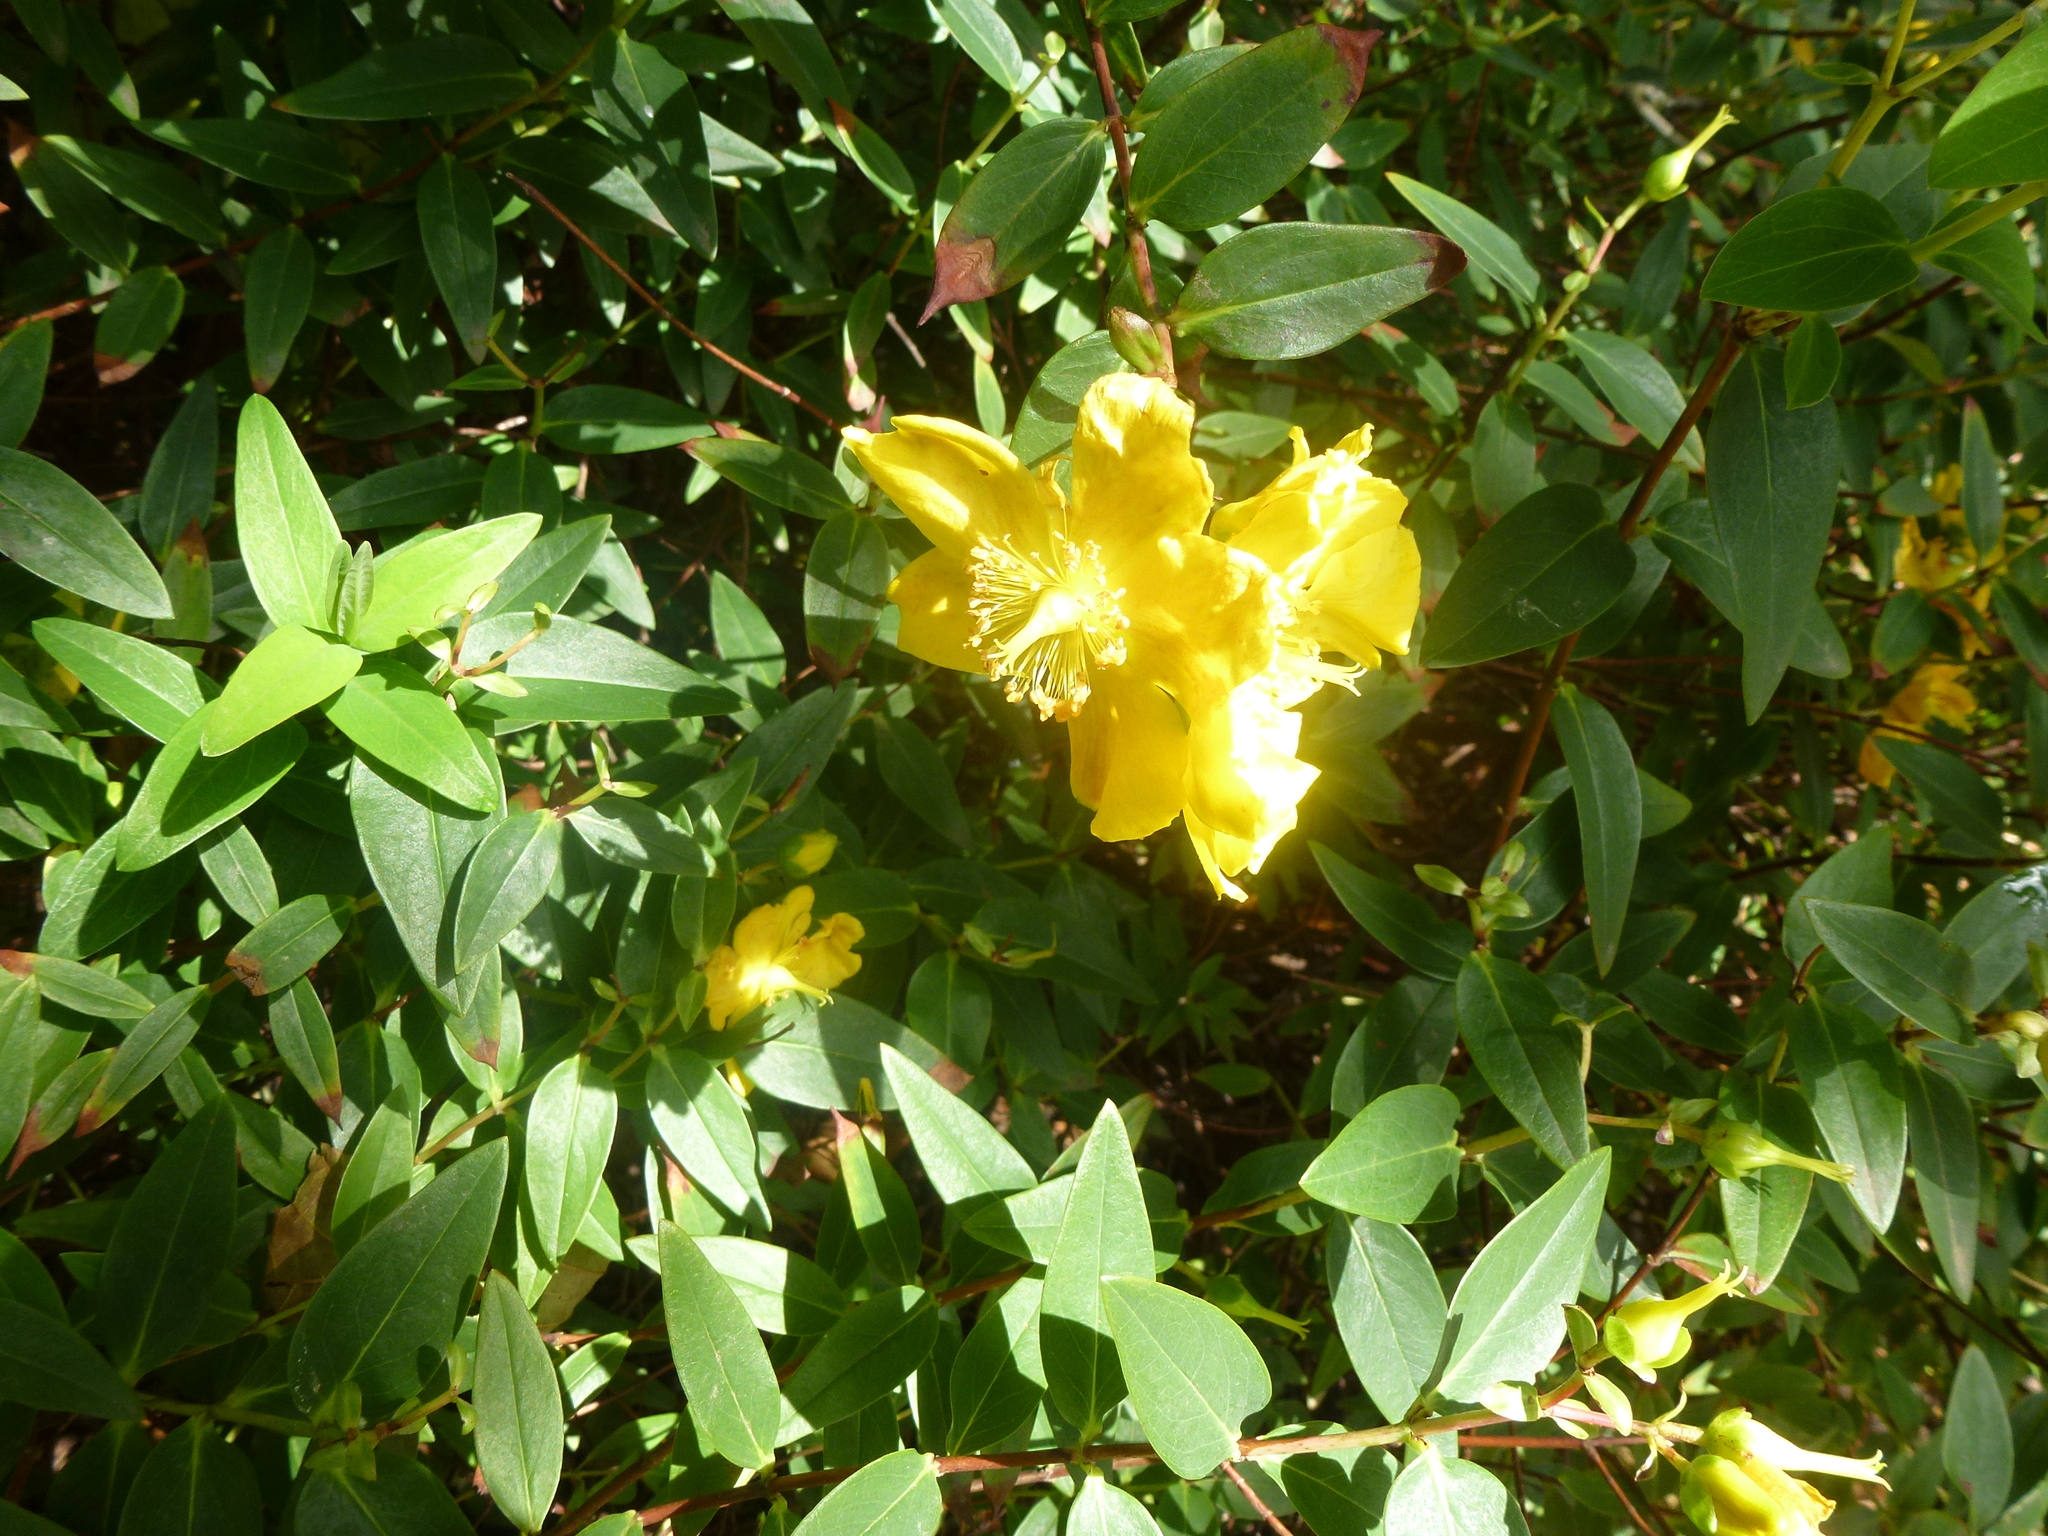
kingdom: Plantae
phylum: Tracheophyta
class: Magnoliopsida
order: Malpighiales
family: Hypericaceae
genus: Hypericum
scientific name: Hypericum hidcoteense
